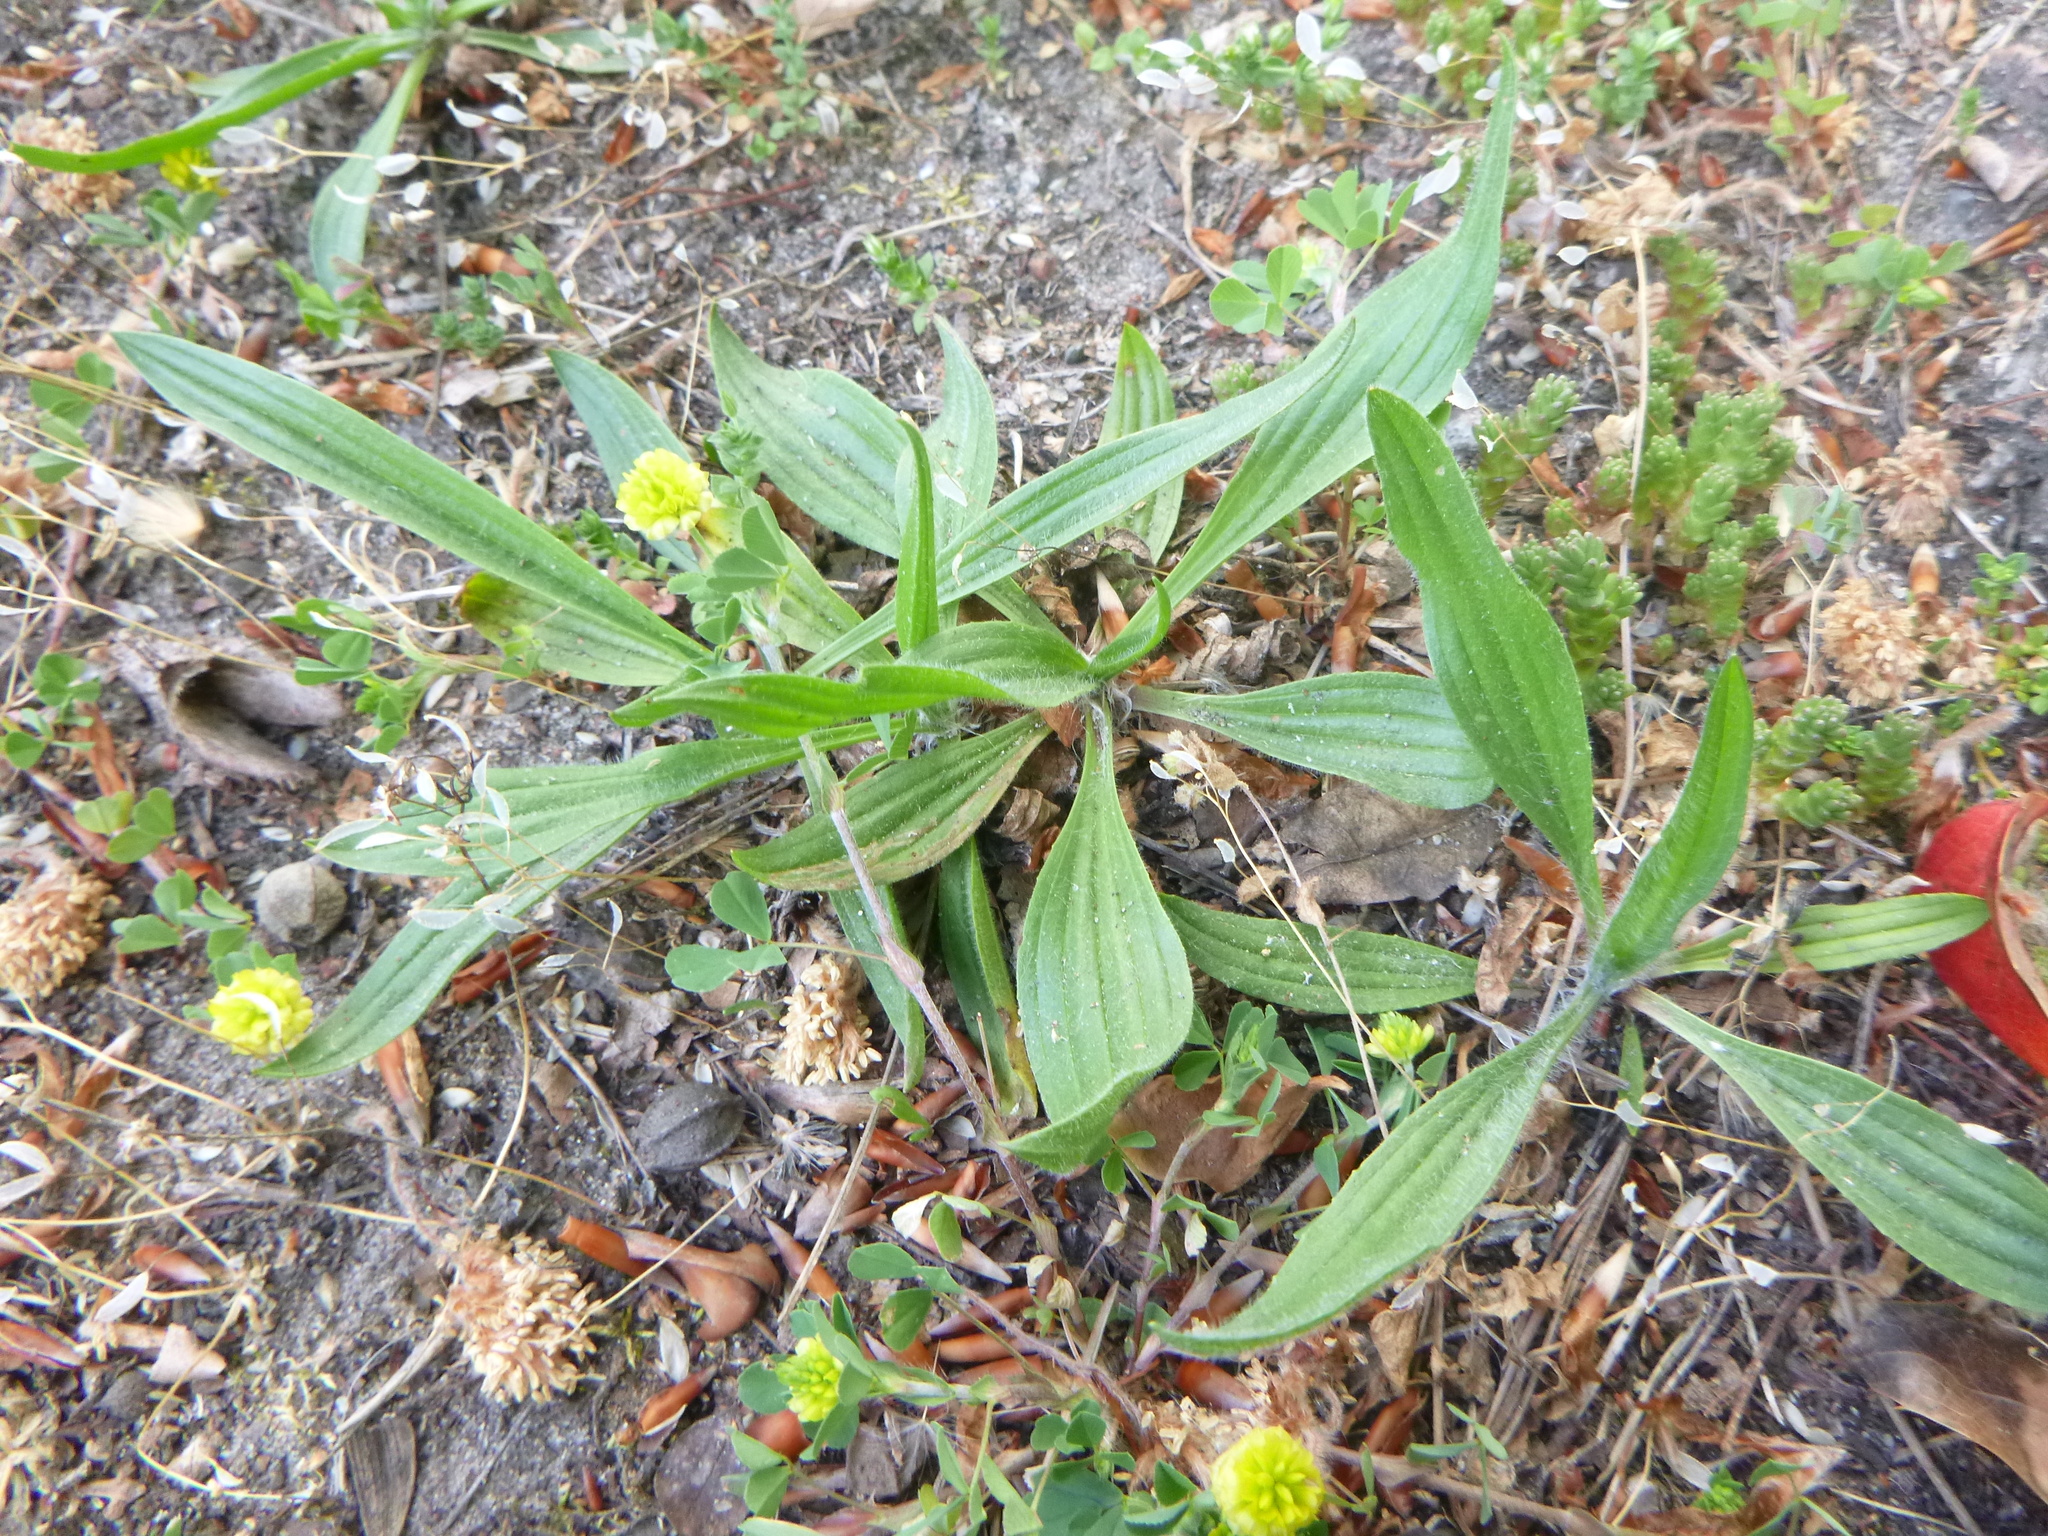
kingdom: Plantae
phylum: Tracheophyta
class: Magnoliopsida
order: Lamiales
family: Plantaginaceae
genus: Plantago
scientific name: Plantago lanceolata
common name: Ribwort plantain
